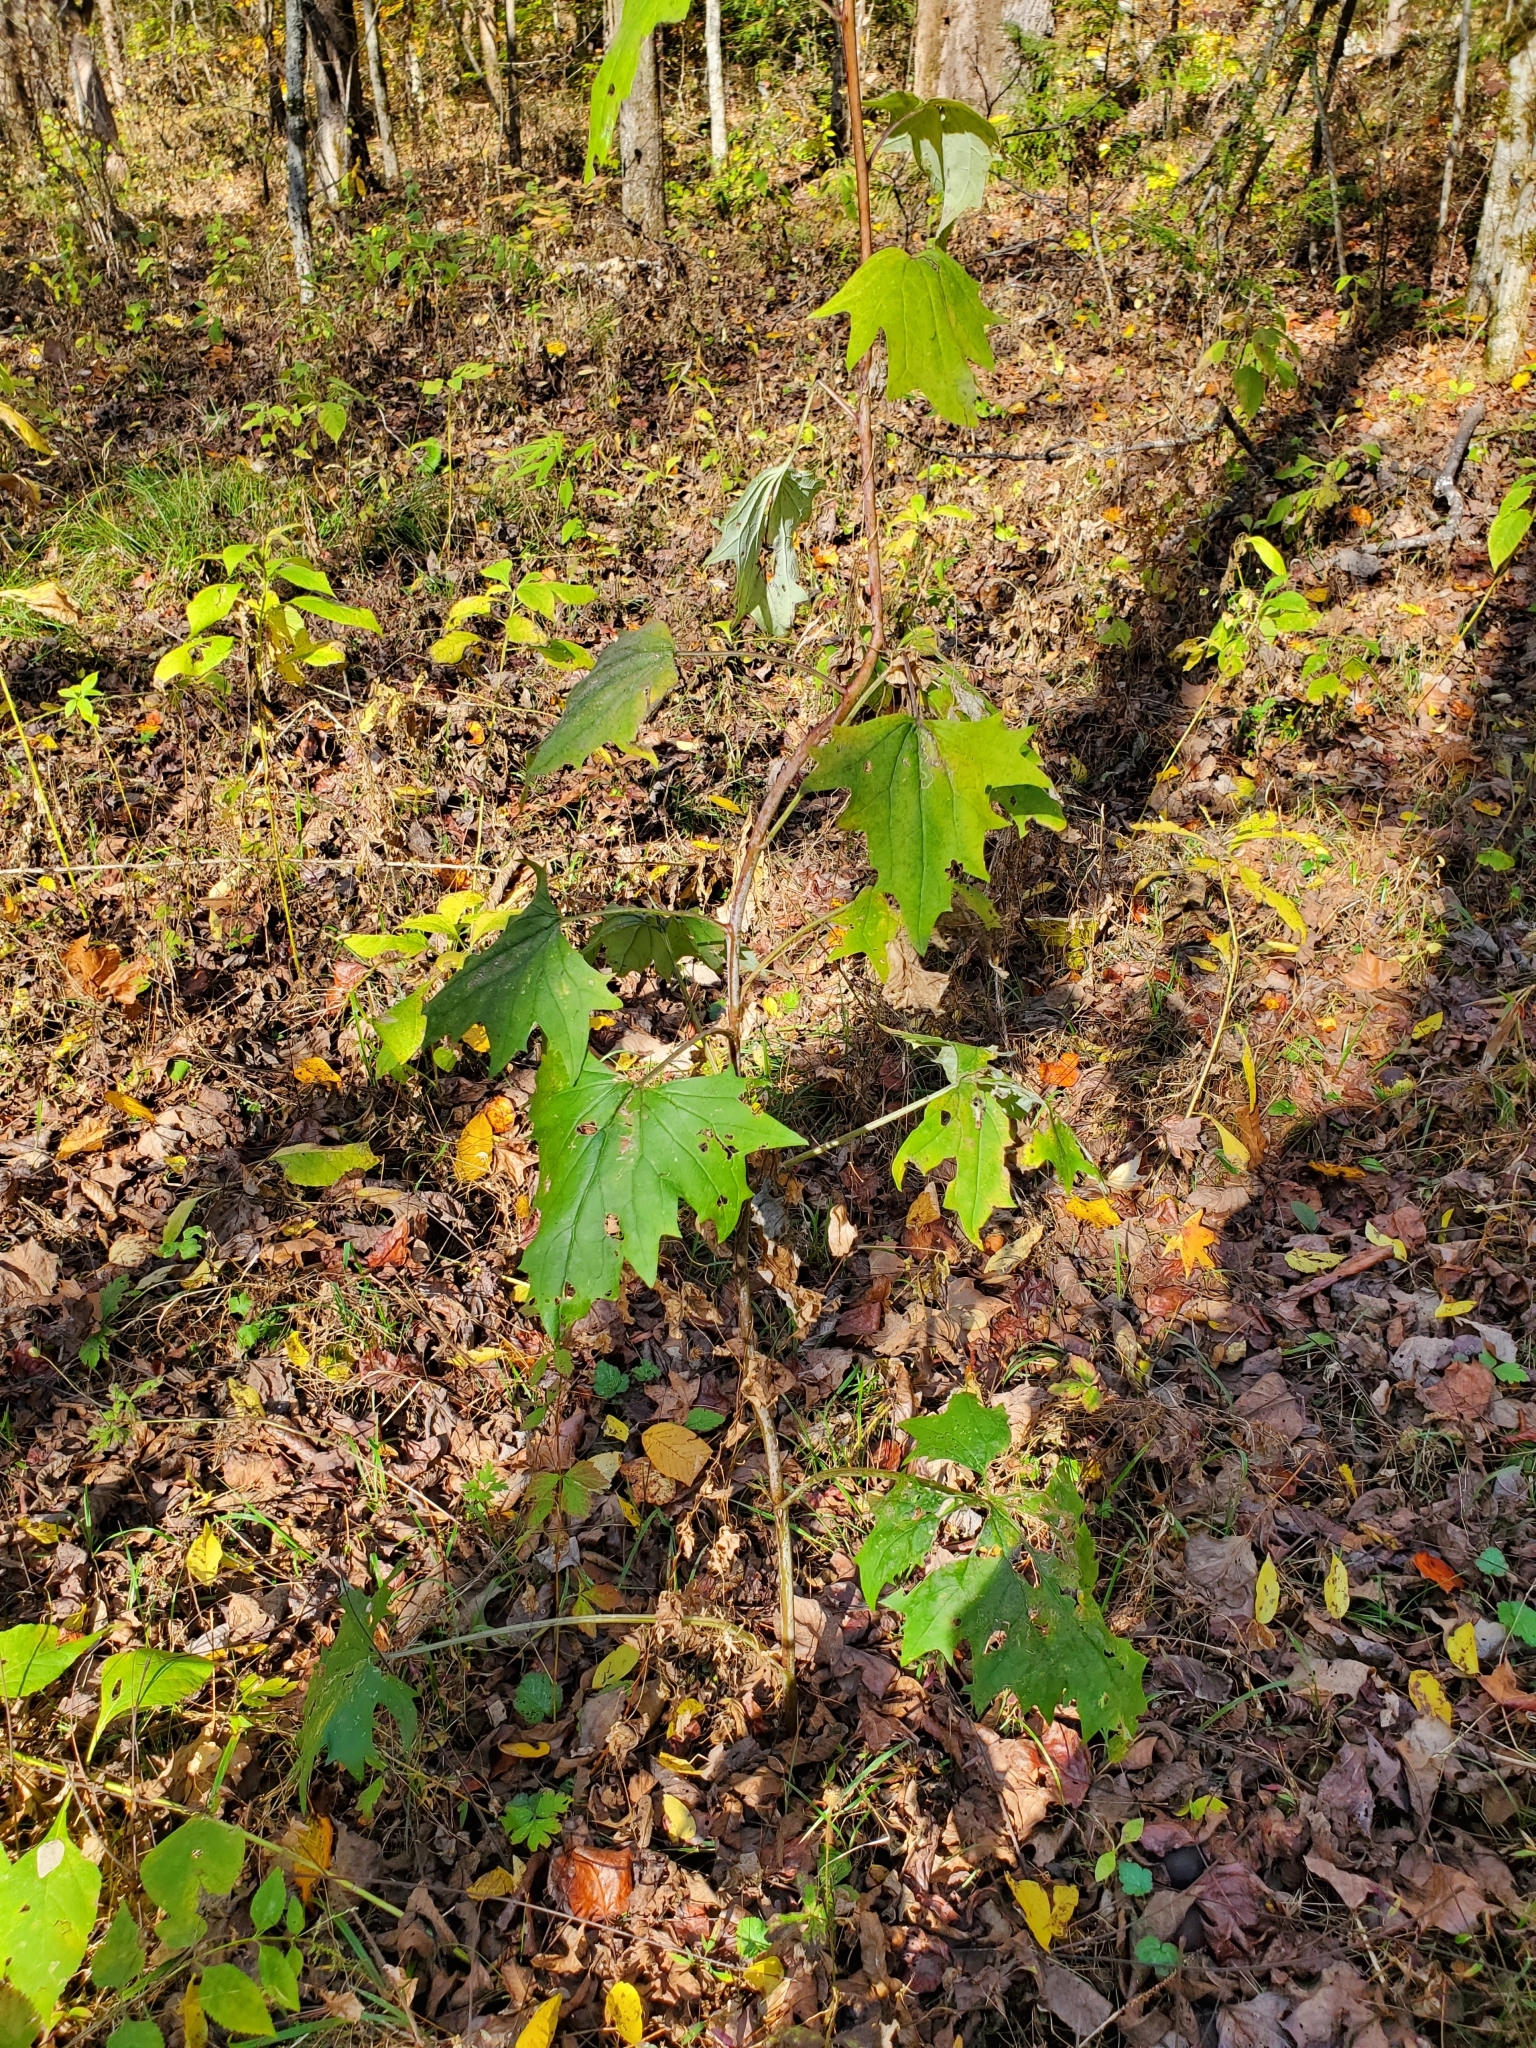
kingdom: Plantae
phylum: Tracheophyta
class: Magnoliopsida
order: Asterales
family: Asteraceae
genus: Arnoglossum
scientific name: Arnoglossum atriplicifolium
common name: Pale indian-plantain
